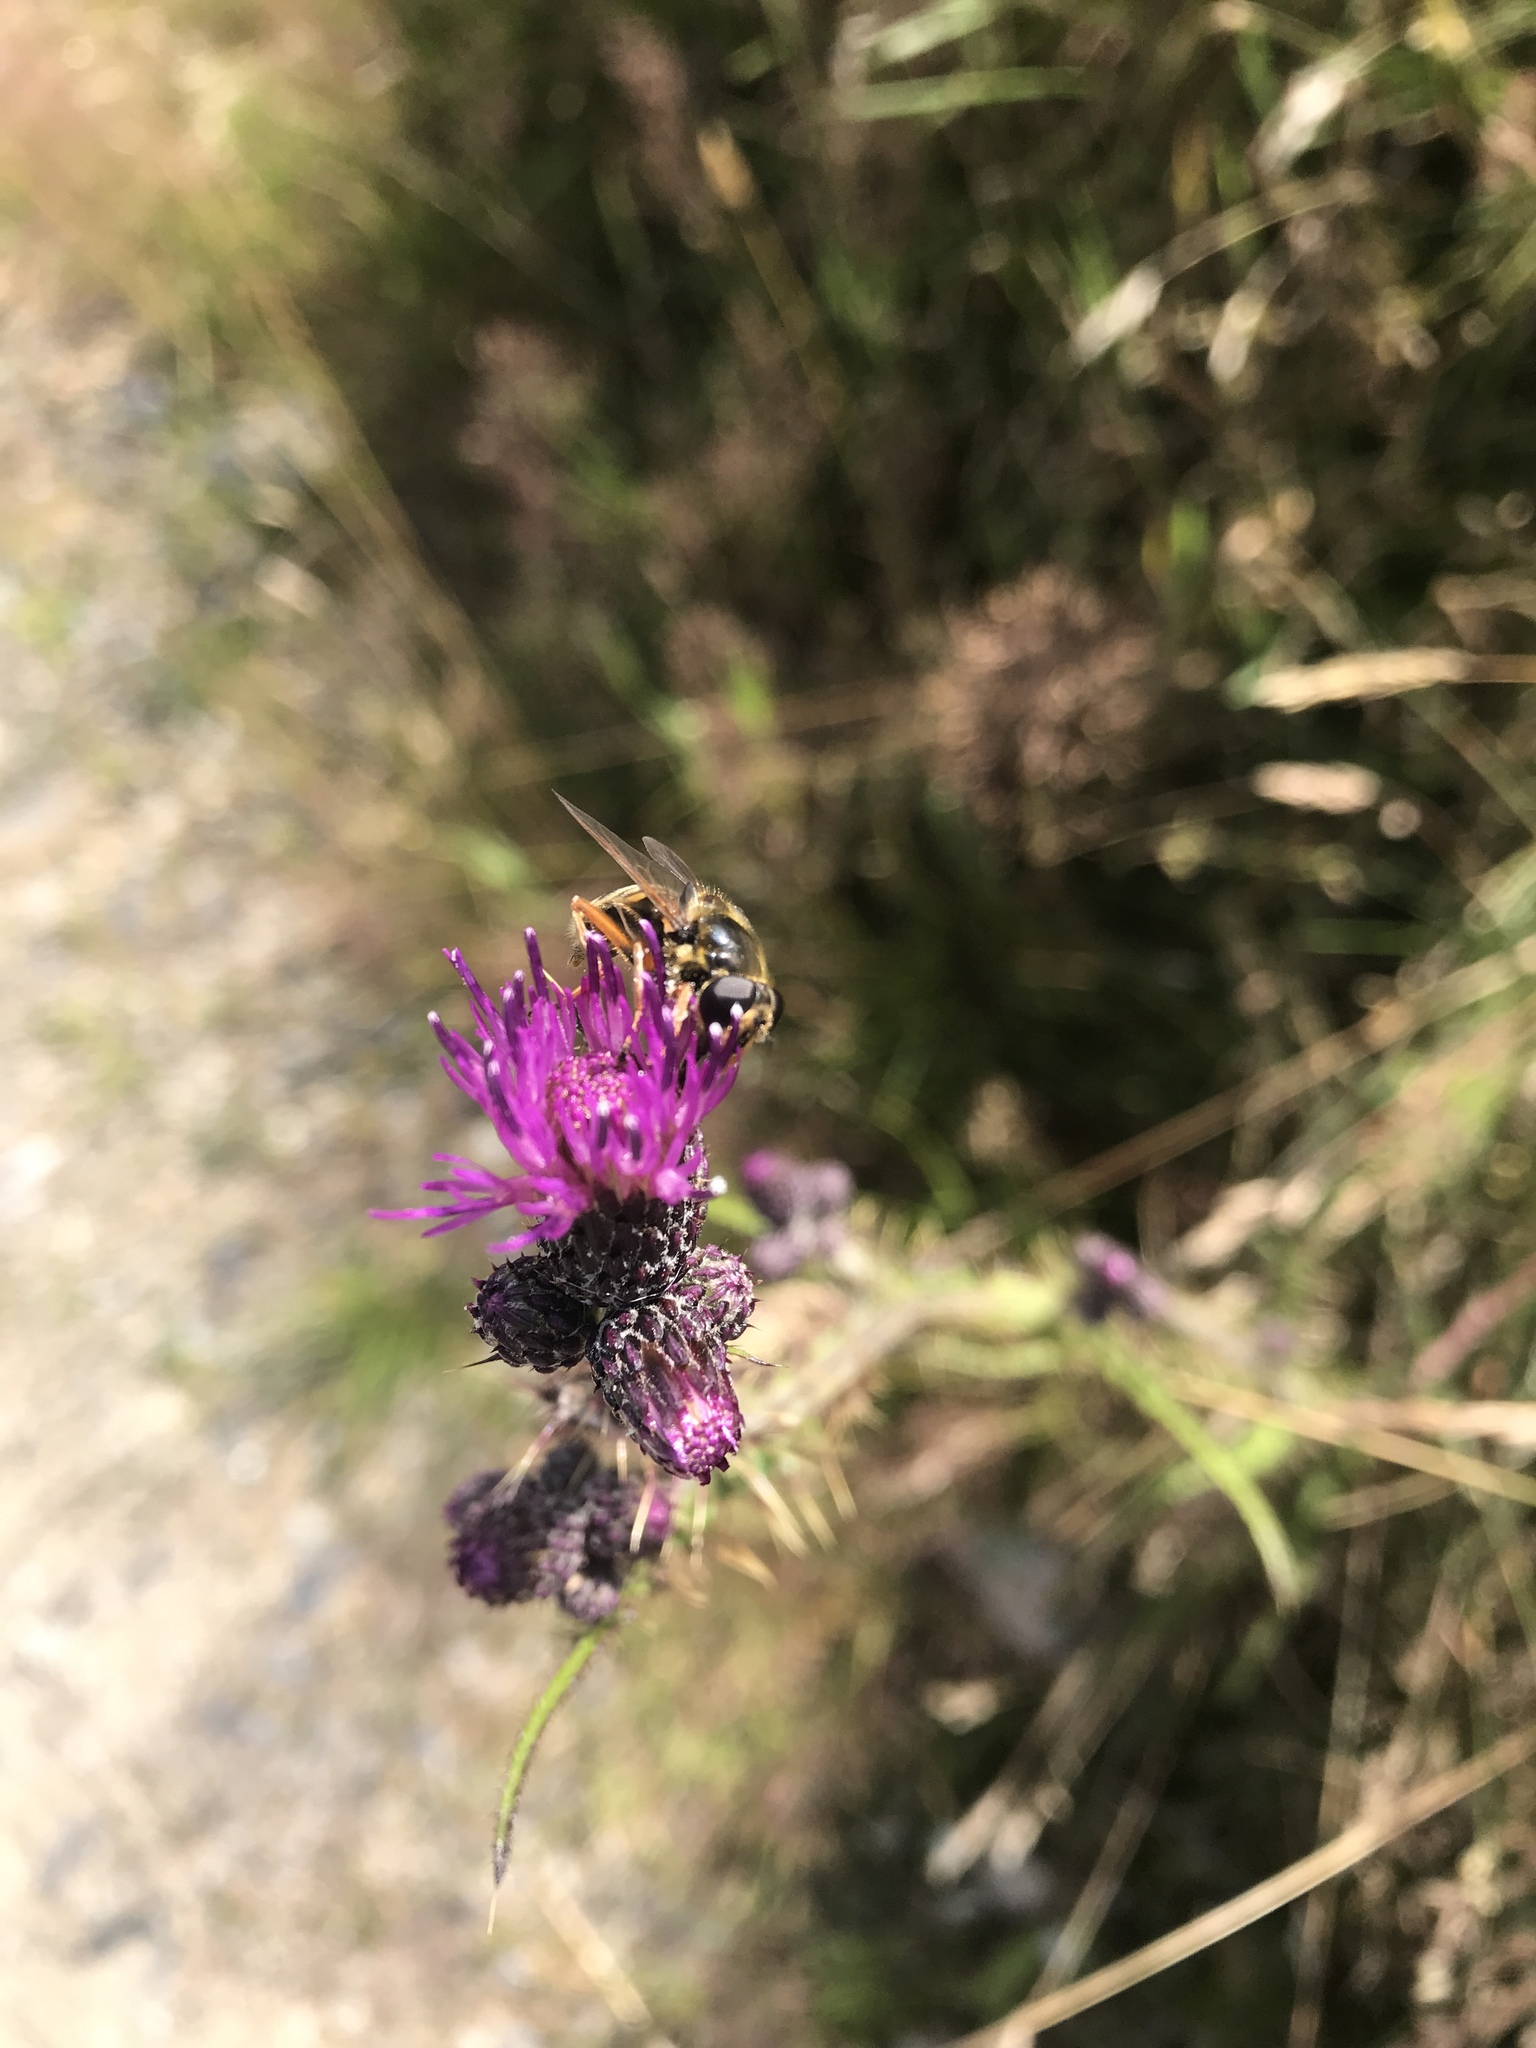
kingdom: Animalia
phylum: Arthropoda
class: Insecta
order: Diptera
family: Syrphidae
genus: Sericomyia
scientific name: Sericomyia silentis
